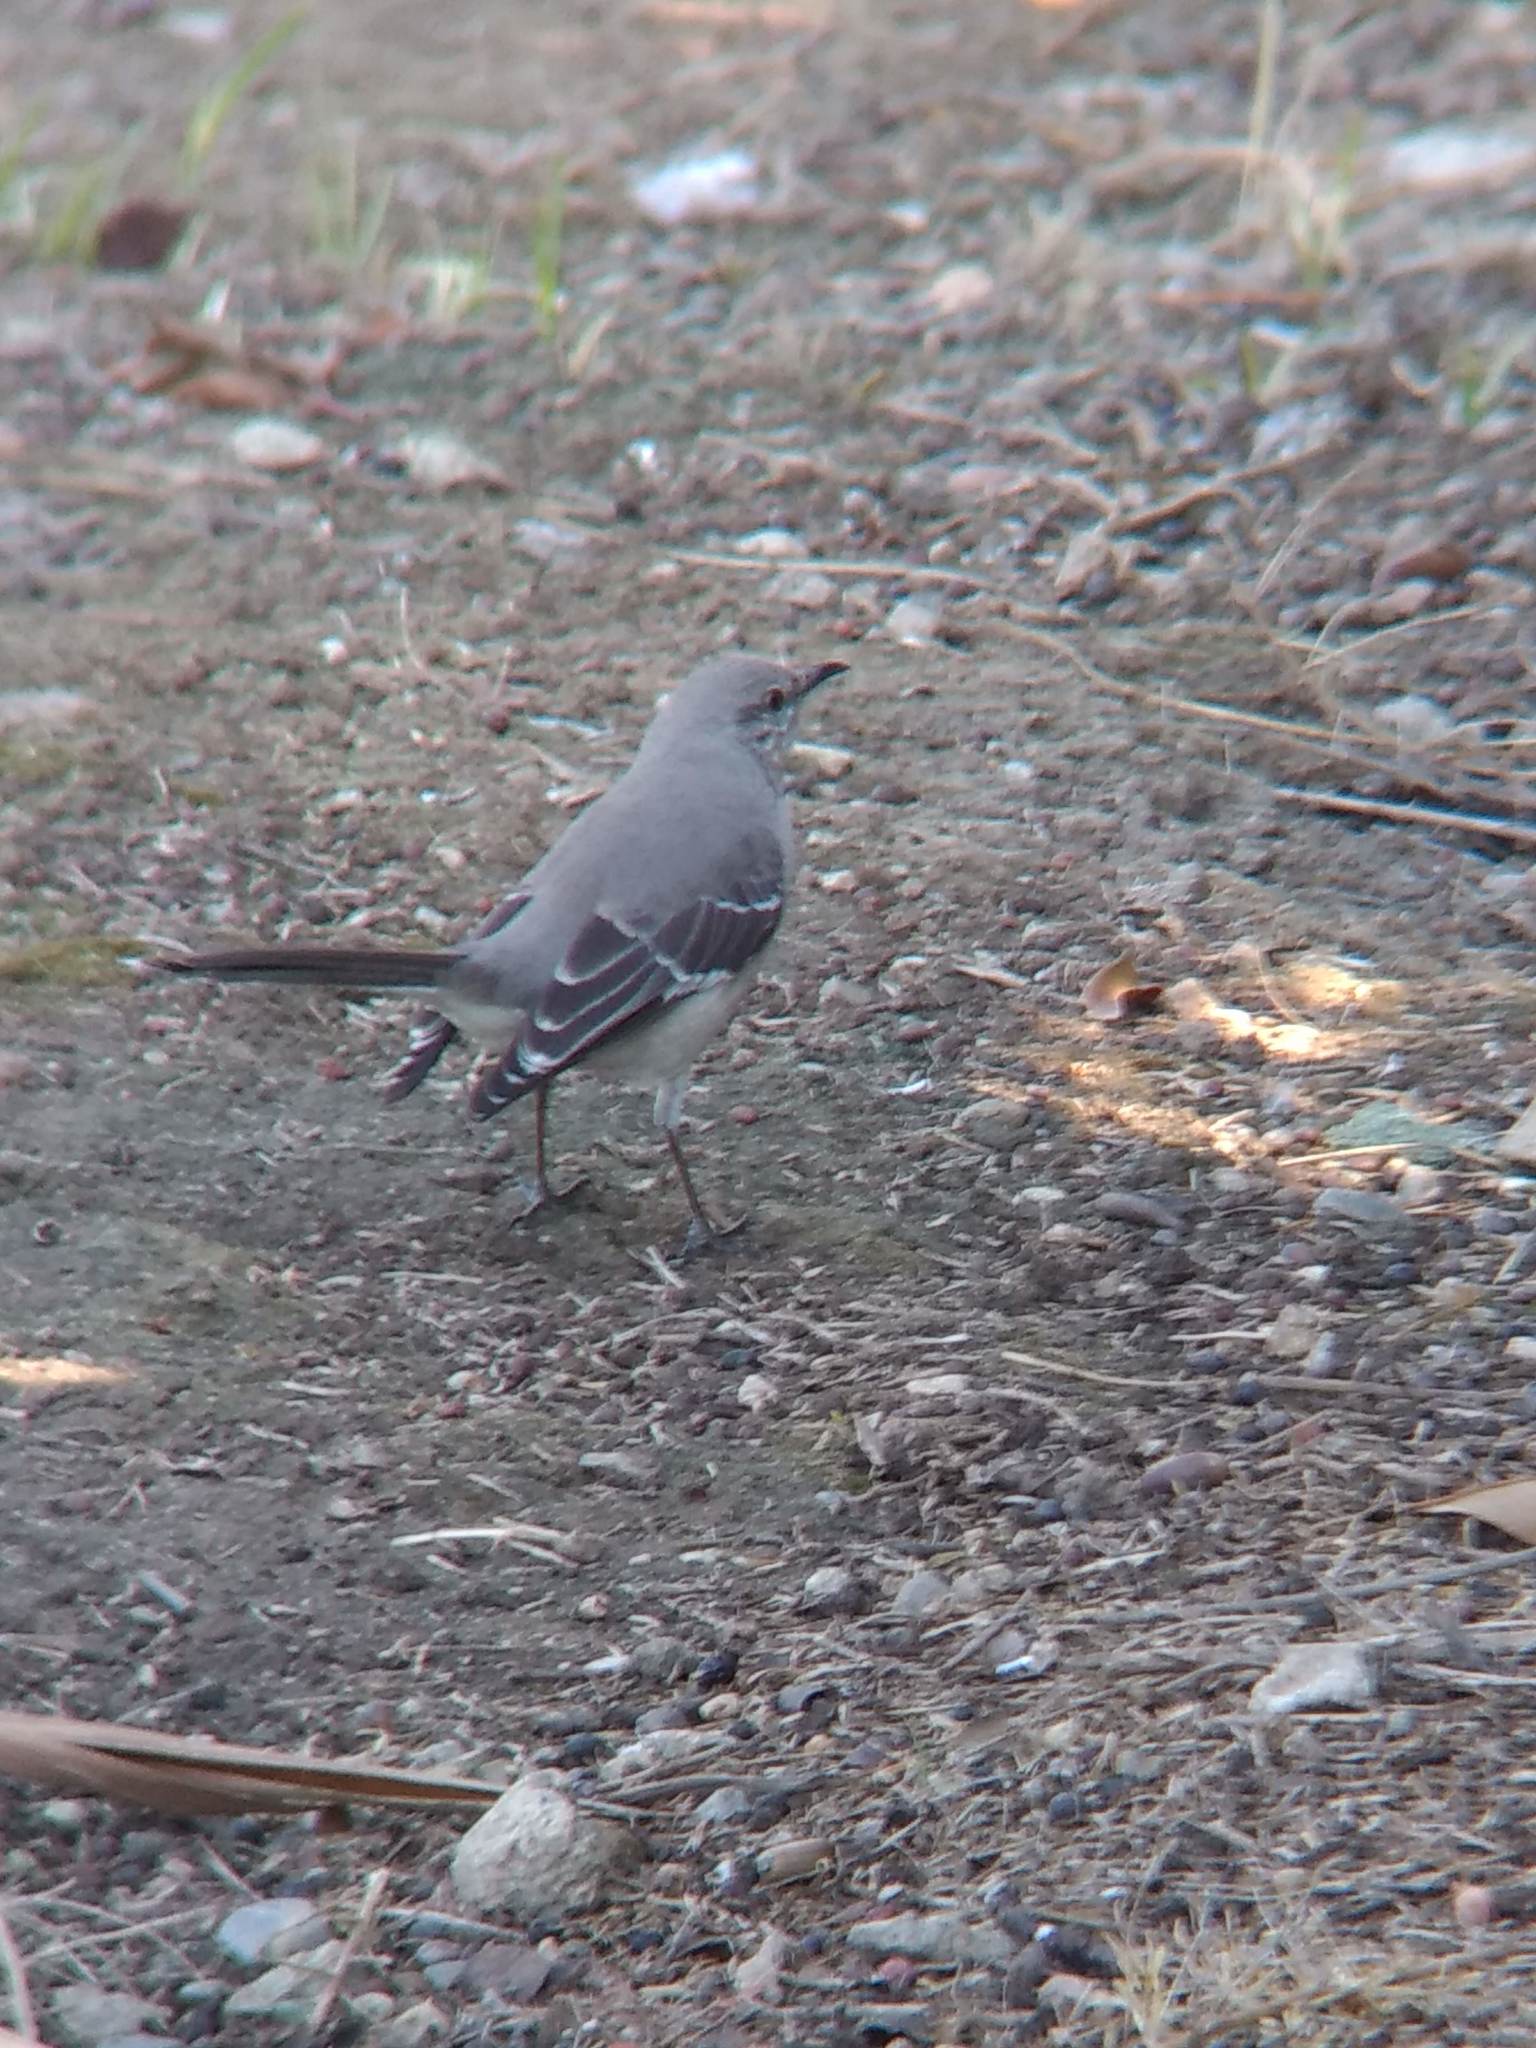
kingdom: Animalia
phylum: Chordata
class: Aves
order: Passeriformes
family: Mimidae
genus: Mimus
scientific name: Mimus polyglottos
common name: Northern mockingbird
